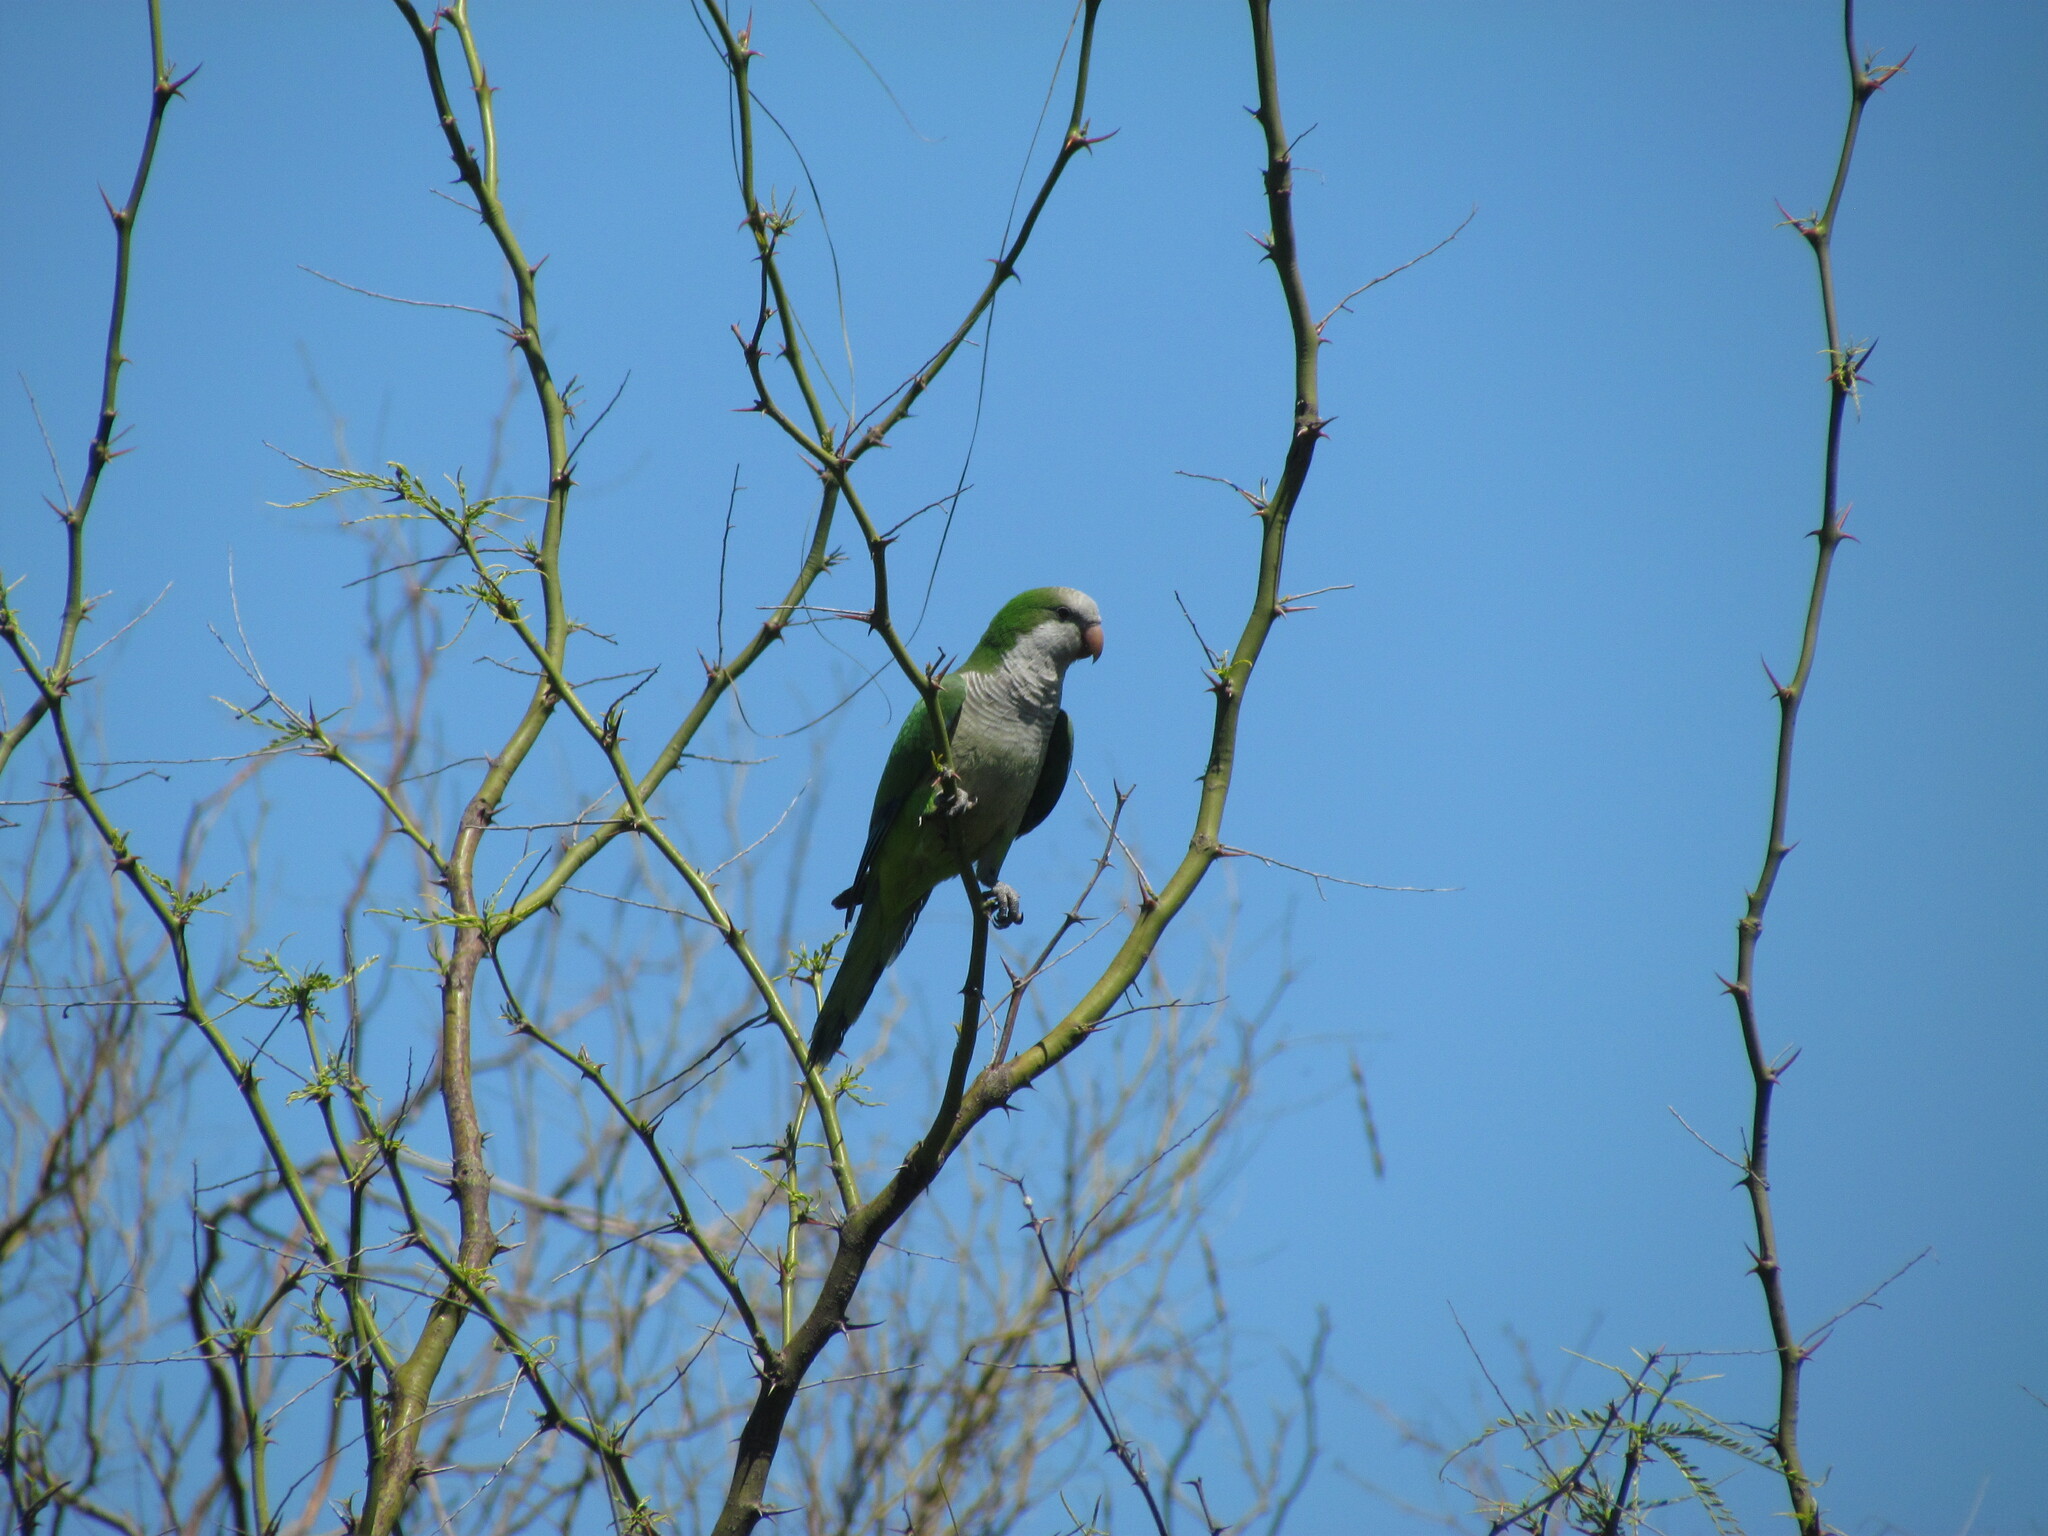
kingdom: Animalia
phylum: Chordata
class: Aves
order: Psittaciformes
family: Psittacidae
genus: Myiopsitta
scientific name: Myiopsitta monachus
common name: Monk parakeet
